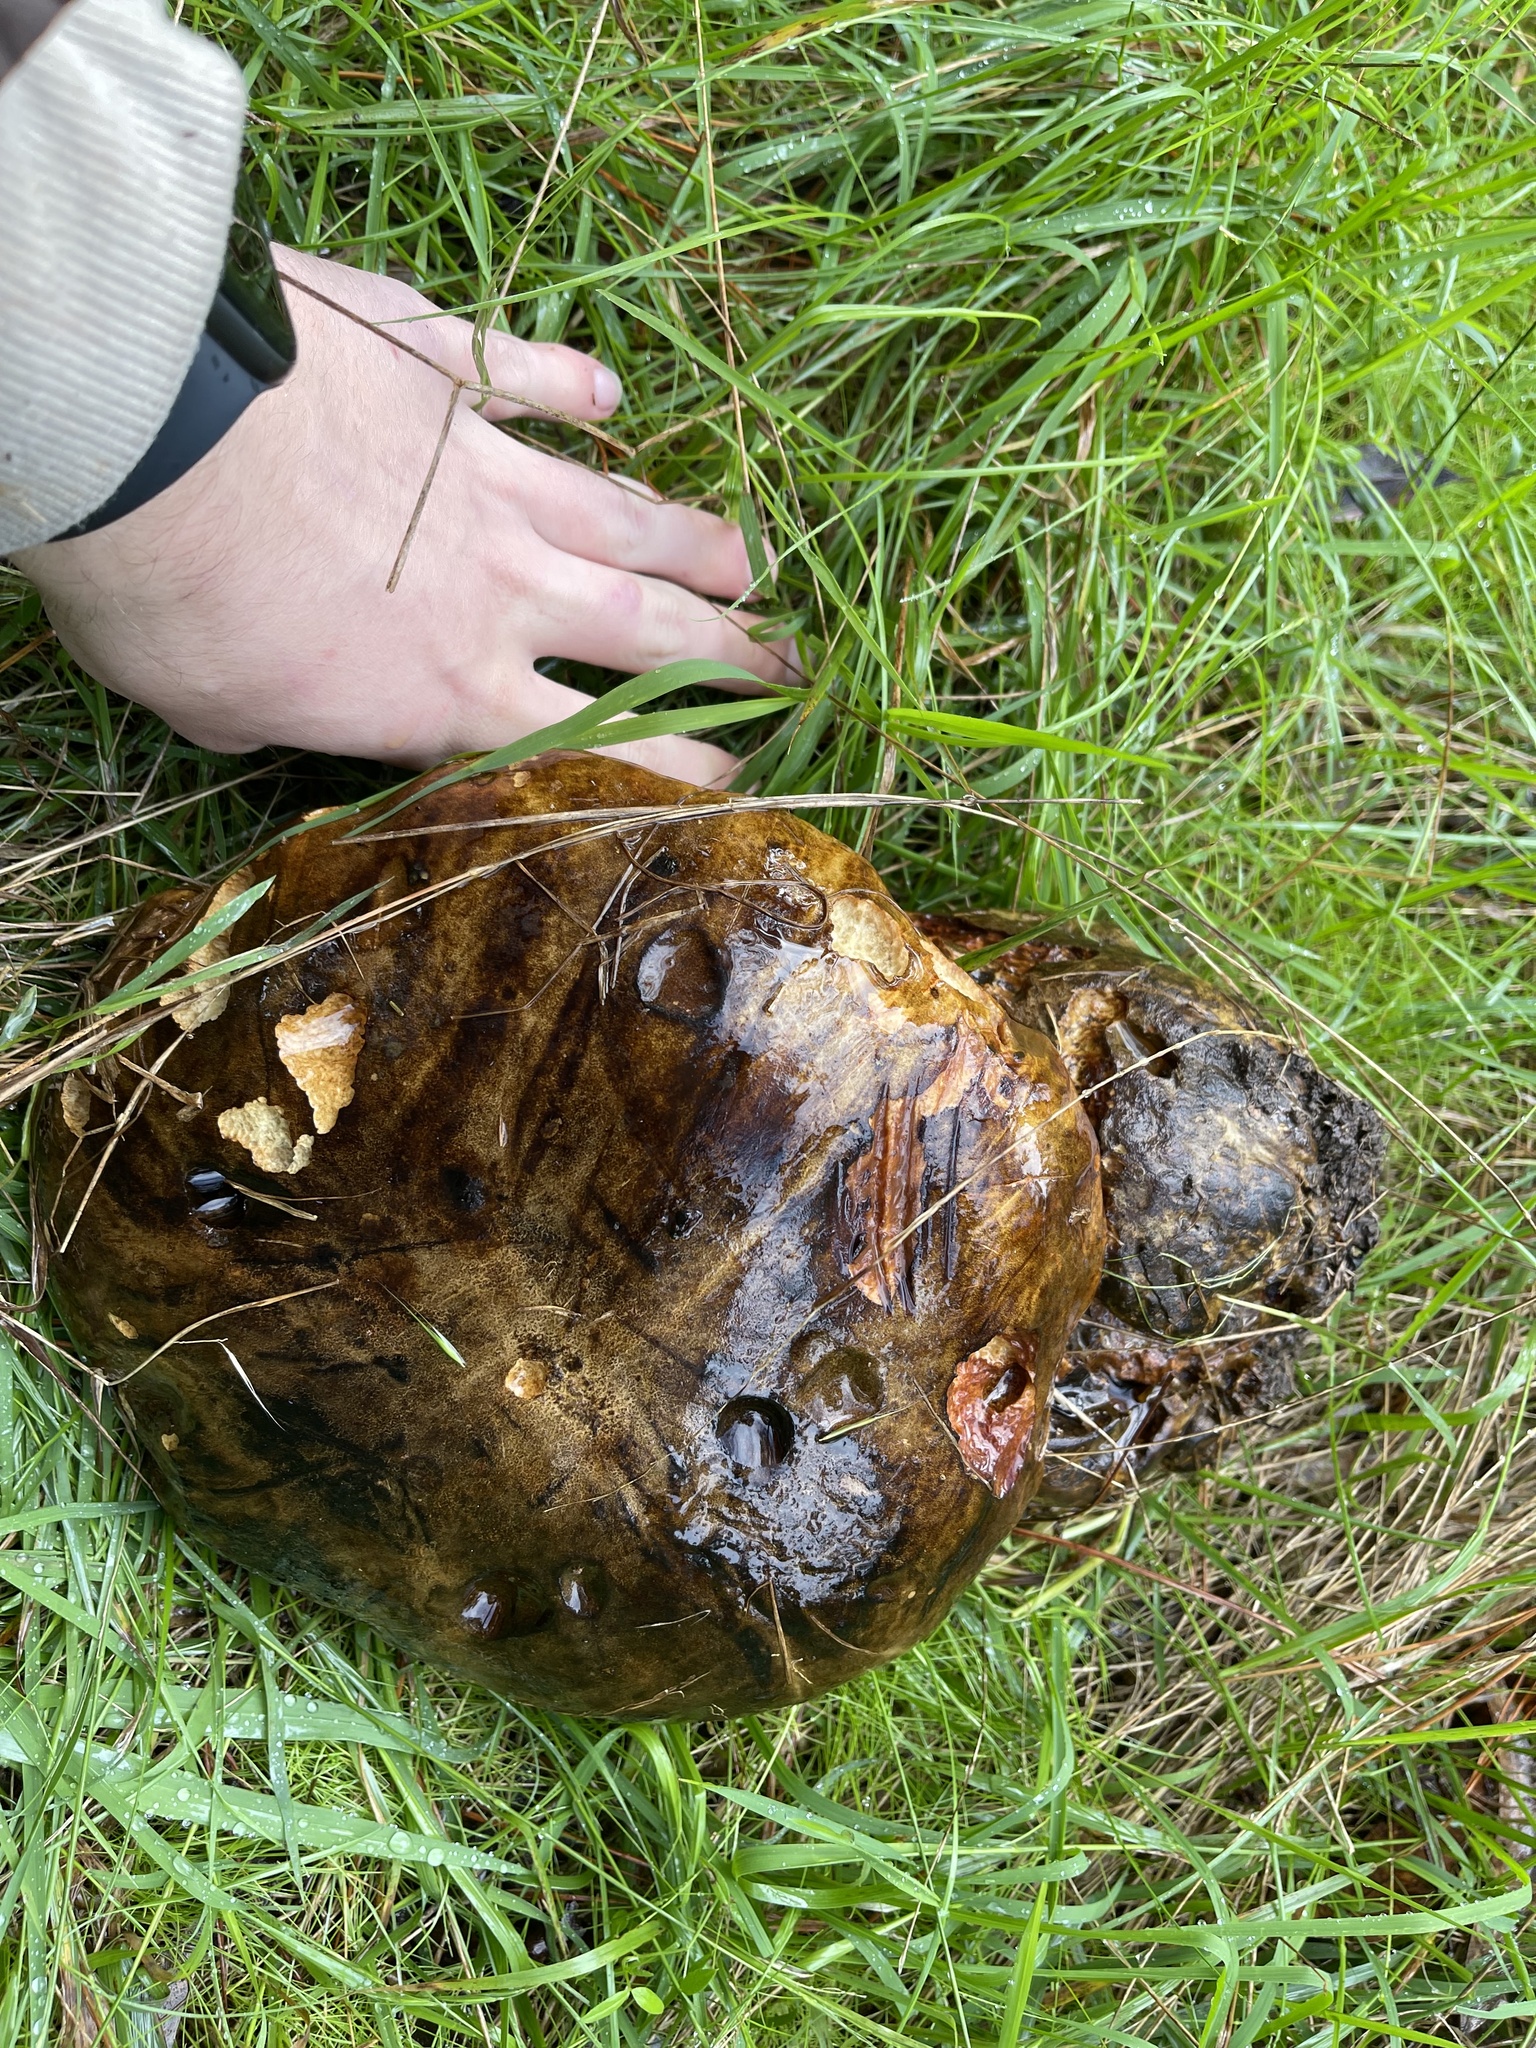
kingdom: Fungi
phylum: Basidiomycota
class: Agaricomycetes
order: Boletales
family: Boletinellaceae
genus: Phlebopus
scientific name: Phlebopus marginatus
